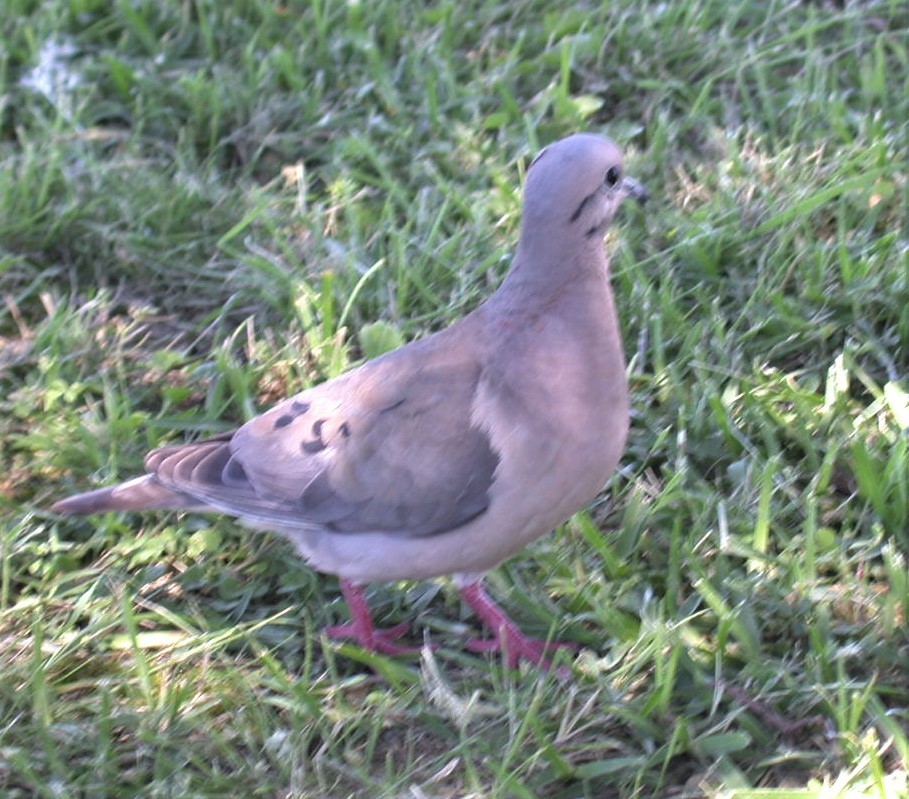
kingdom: Animalia
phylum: Chordata
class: Aves
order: Columbiformes
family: Columbidae
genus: Zenaida
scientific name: Zenaida auriculata
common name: Eared dove
